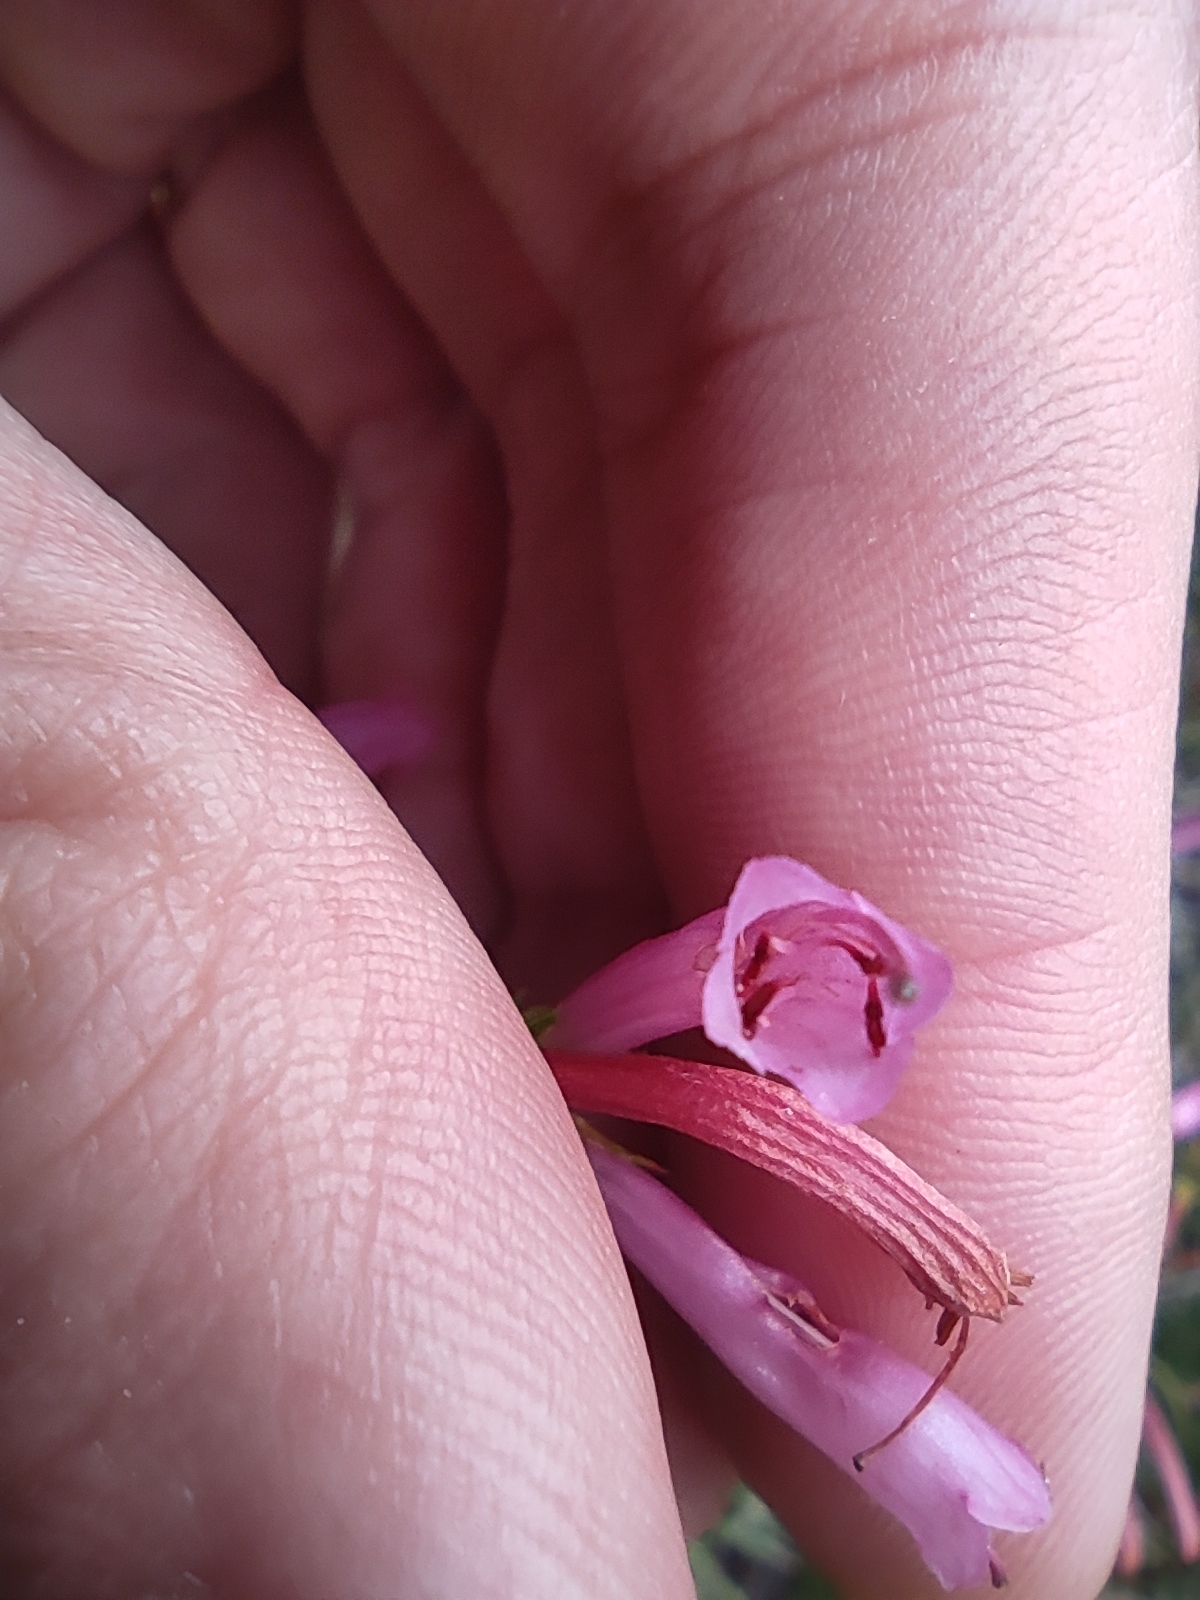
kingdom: Plantae
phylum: Tracheophyta
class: Magnoliopsida
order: Ericales
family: Ericaceae
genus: Erica
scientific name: Erica abietina
